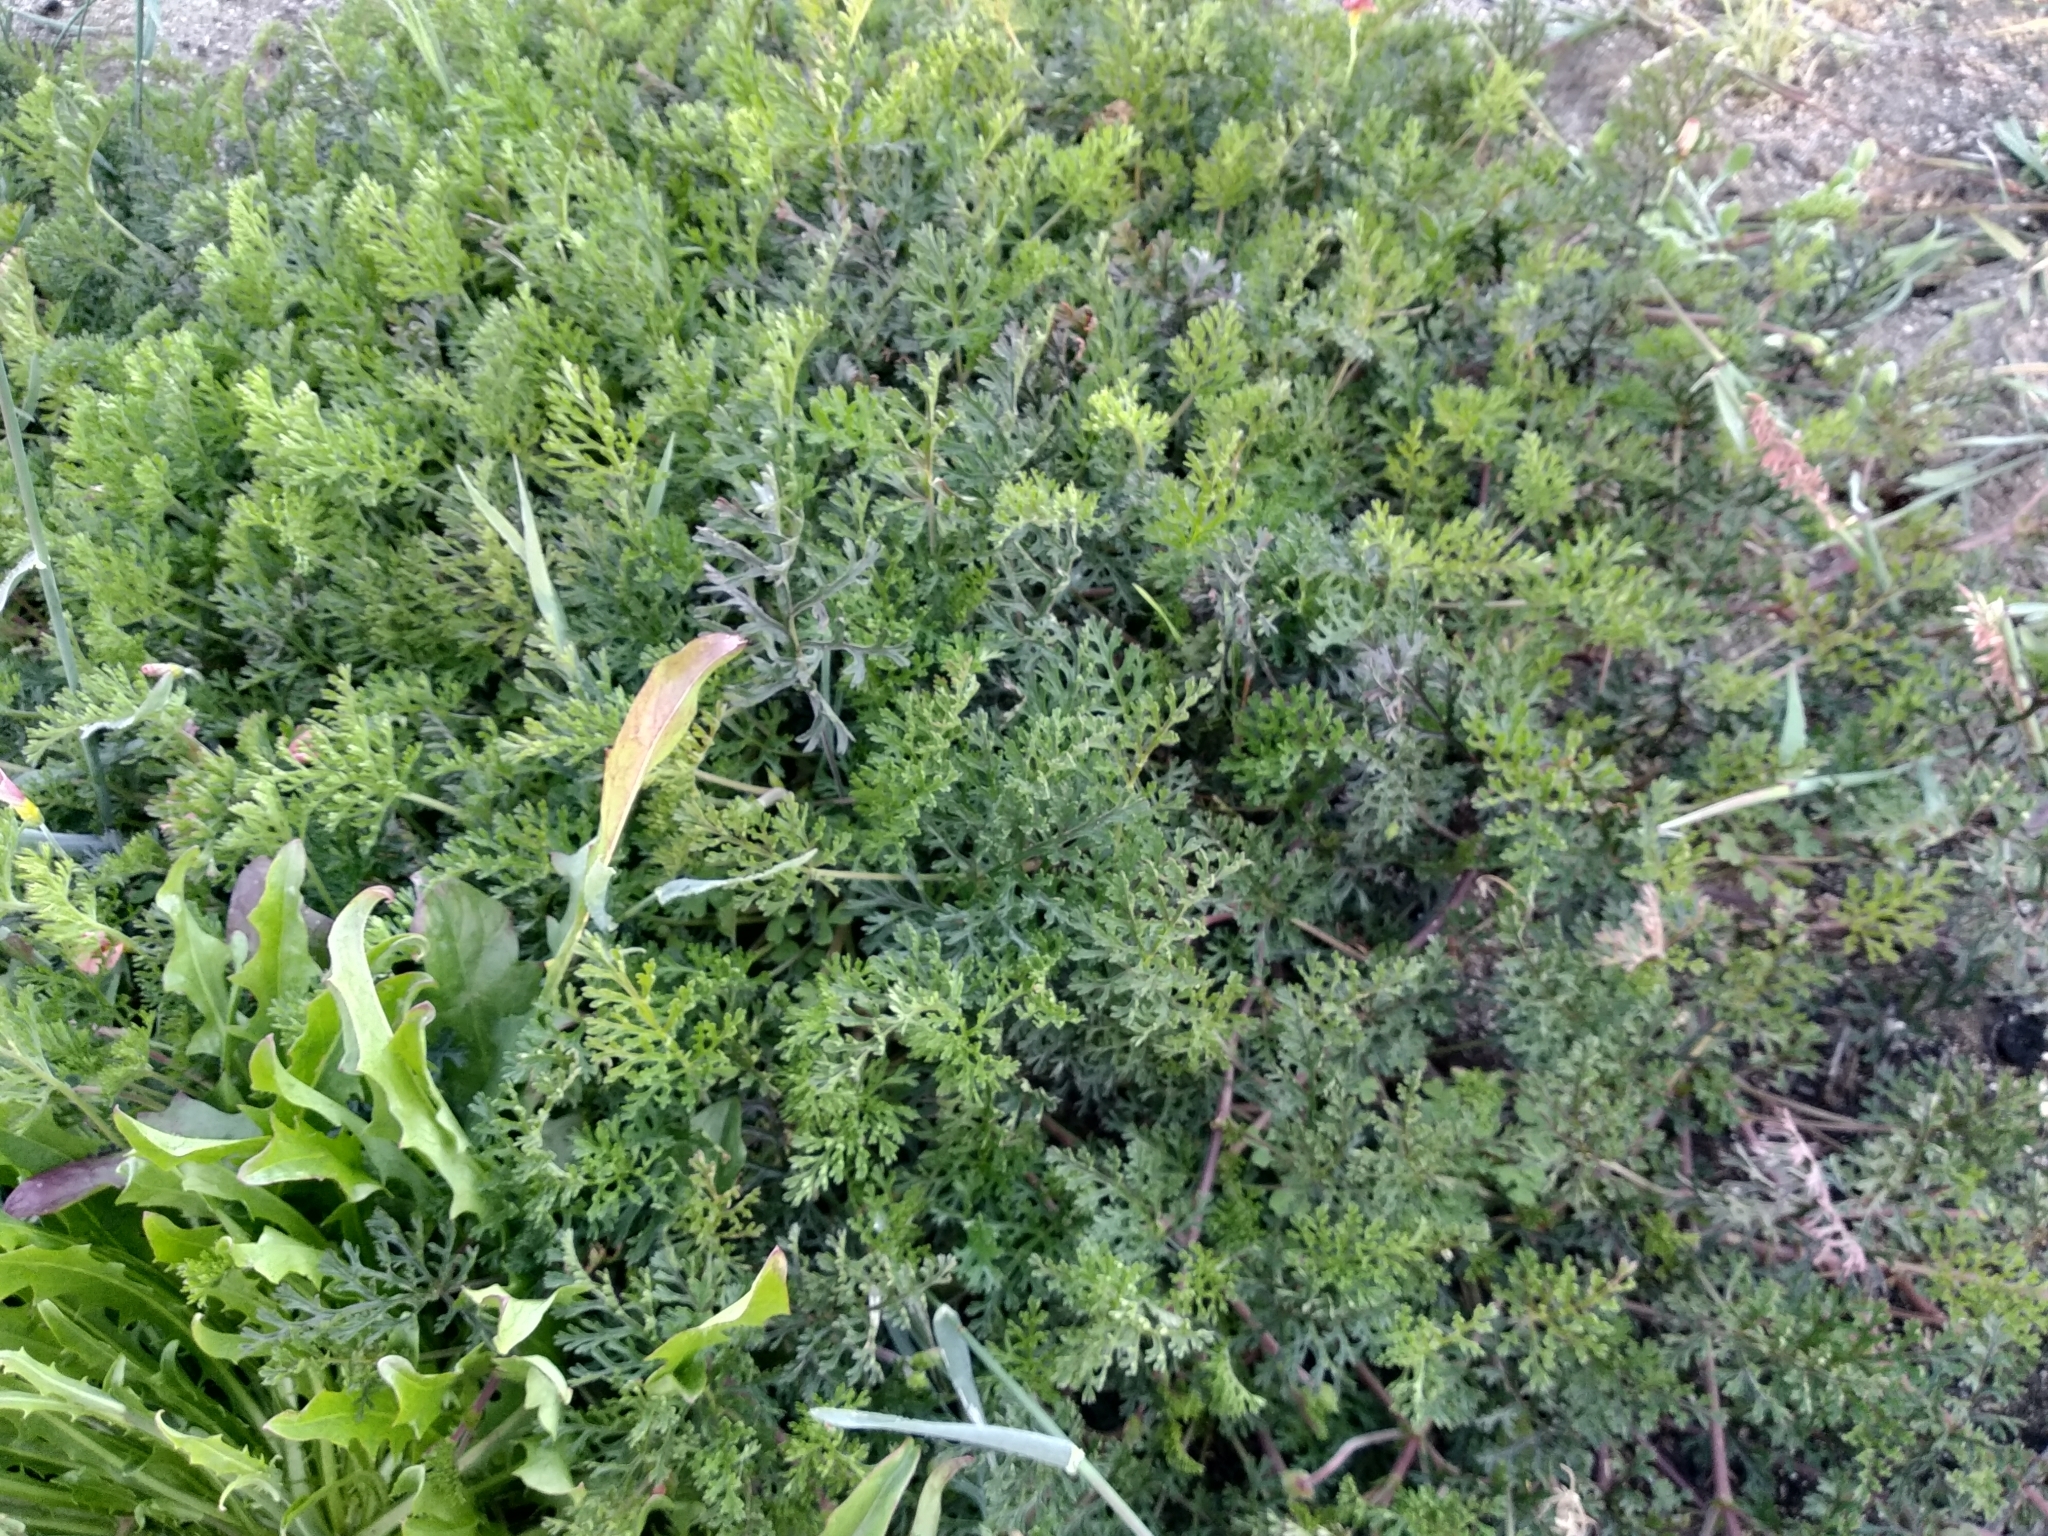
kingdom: Plantae
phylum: Tracheophyta
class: Magnoliopsida
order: Geraniales
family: Geraniaceae
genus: Pelargonium
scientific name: Pelargonium myrrhifolium
